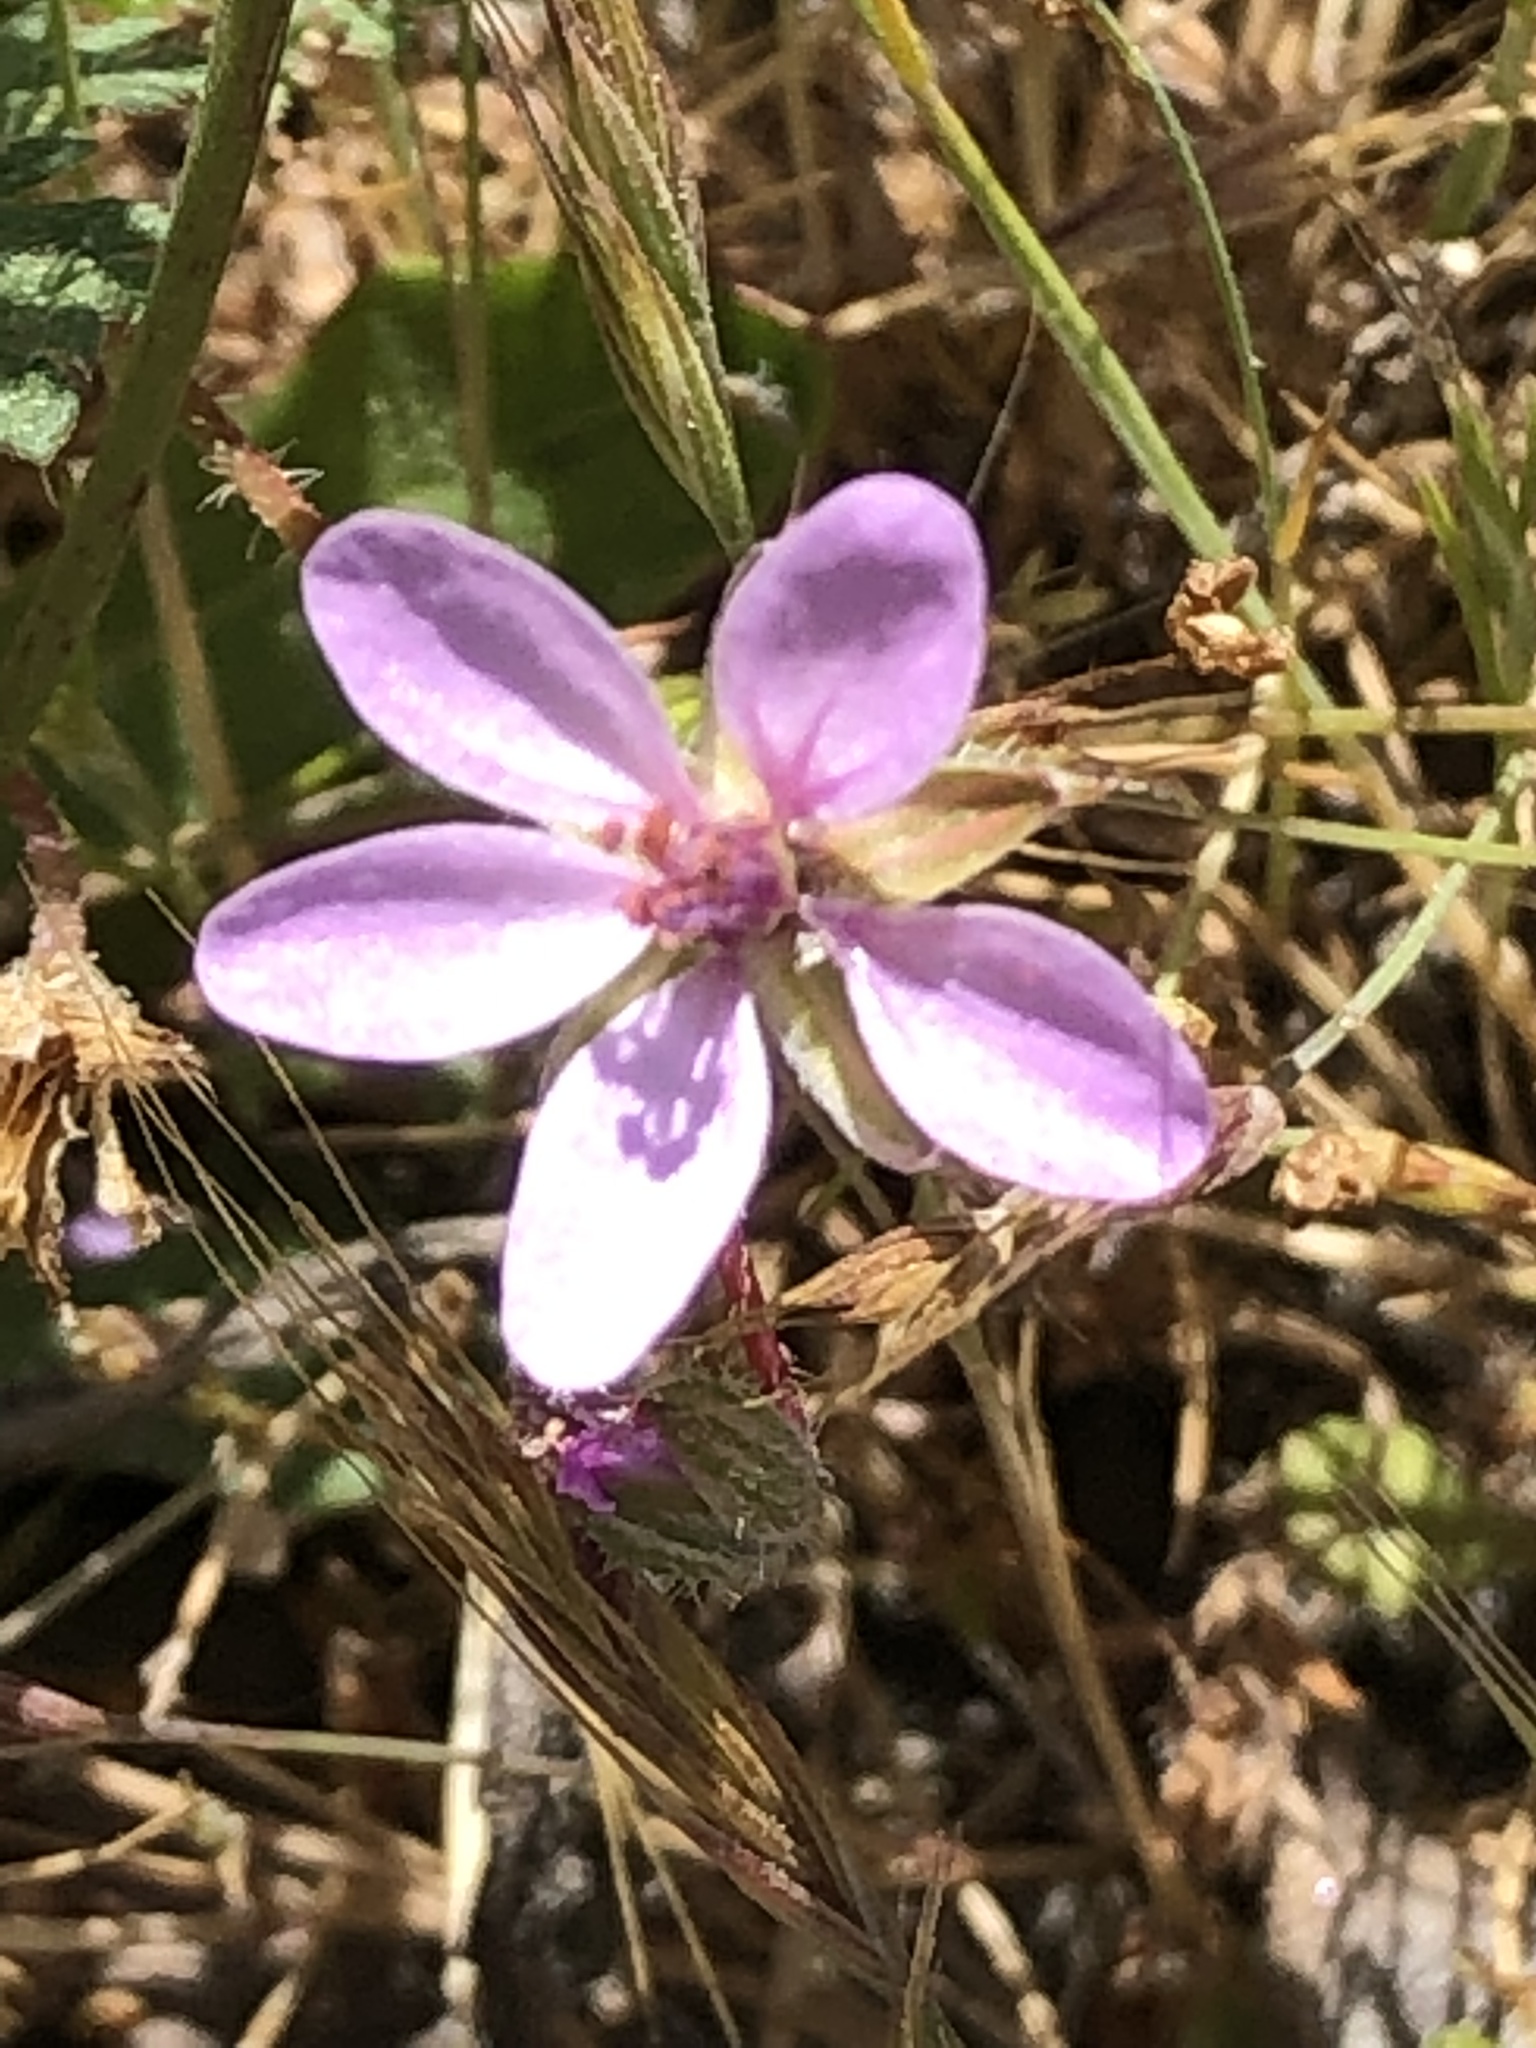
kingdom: Plantae
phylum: Tracheophyta
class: Magnoliopsida
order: Geraniales
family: Geraniaceae
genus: Erodium
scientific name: Erodium cicutarium
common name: Common stork's-bill
